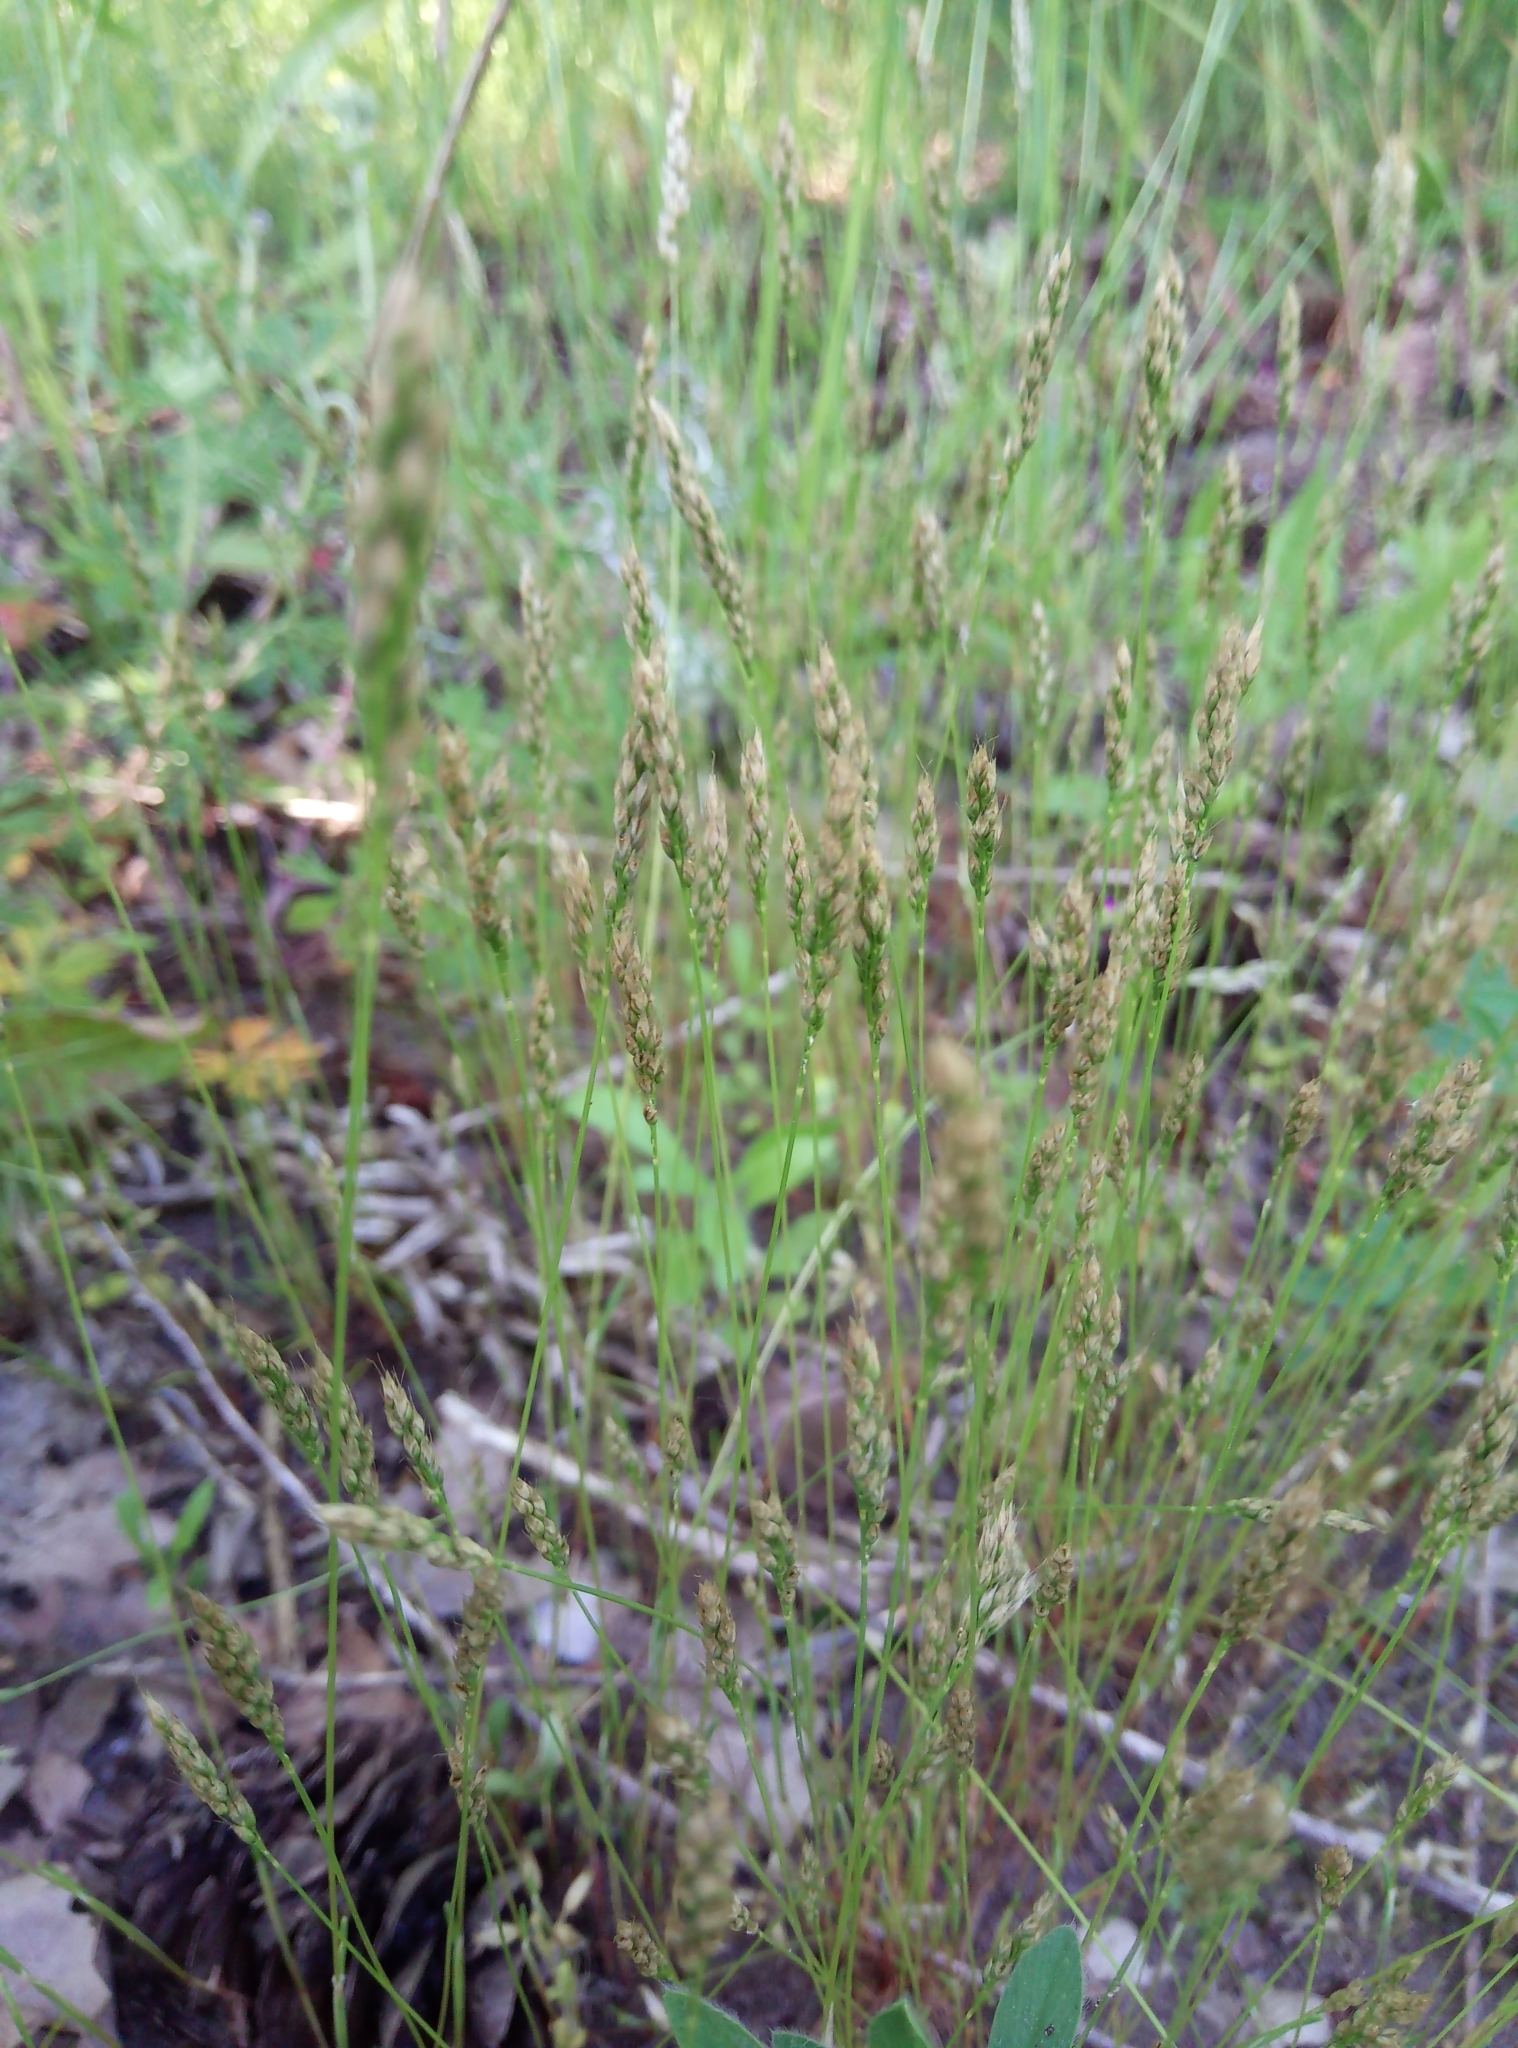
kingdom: Plantae
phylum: Tracheophyta
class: Liliopsida
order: Poales
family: Poaceae
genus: Aira
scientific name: Aira praecox
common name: Early hair-grass
